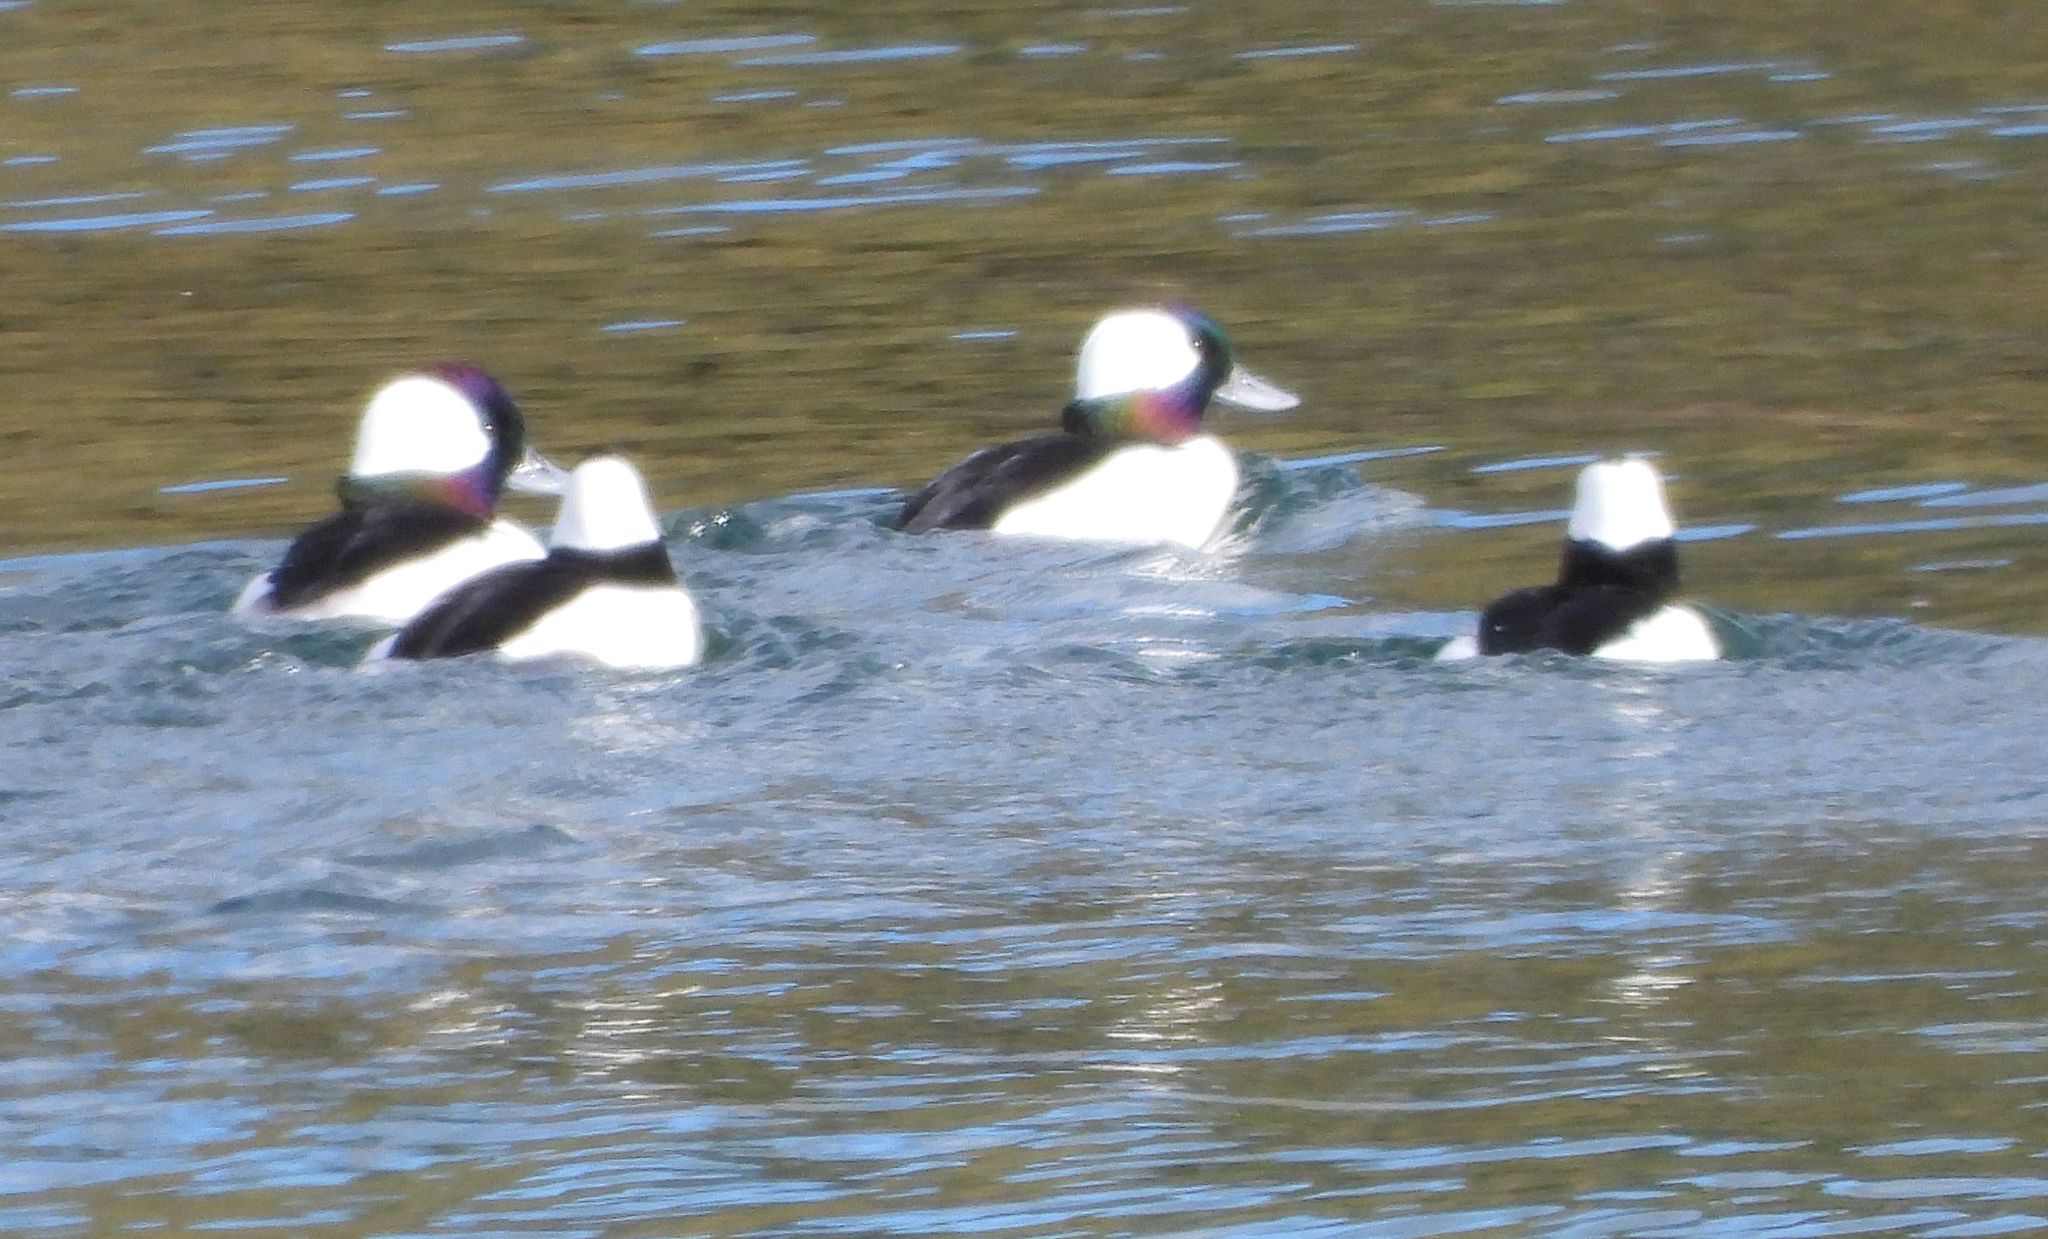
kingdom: Animalia
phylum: Chordata
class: Aves
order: Anseriformes
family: Anatidae
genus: Bucephala
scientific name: Bucephala albeola
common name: Bufflehead
